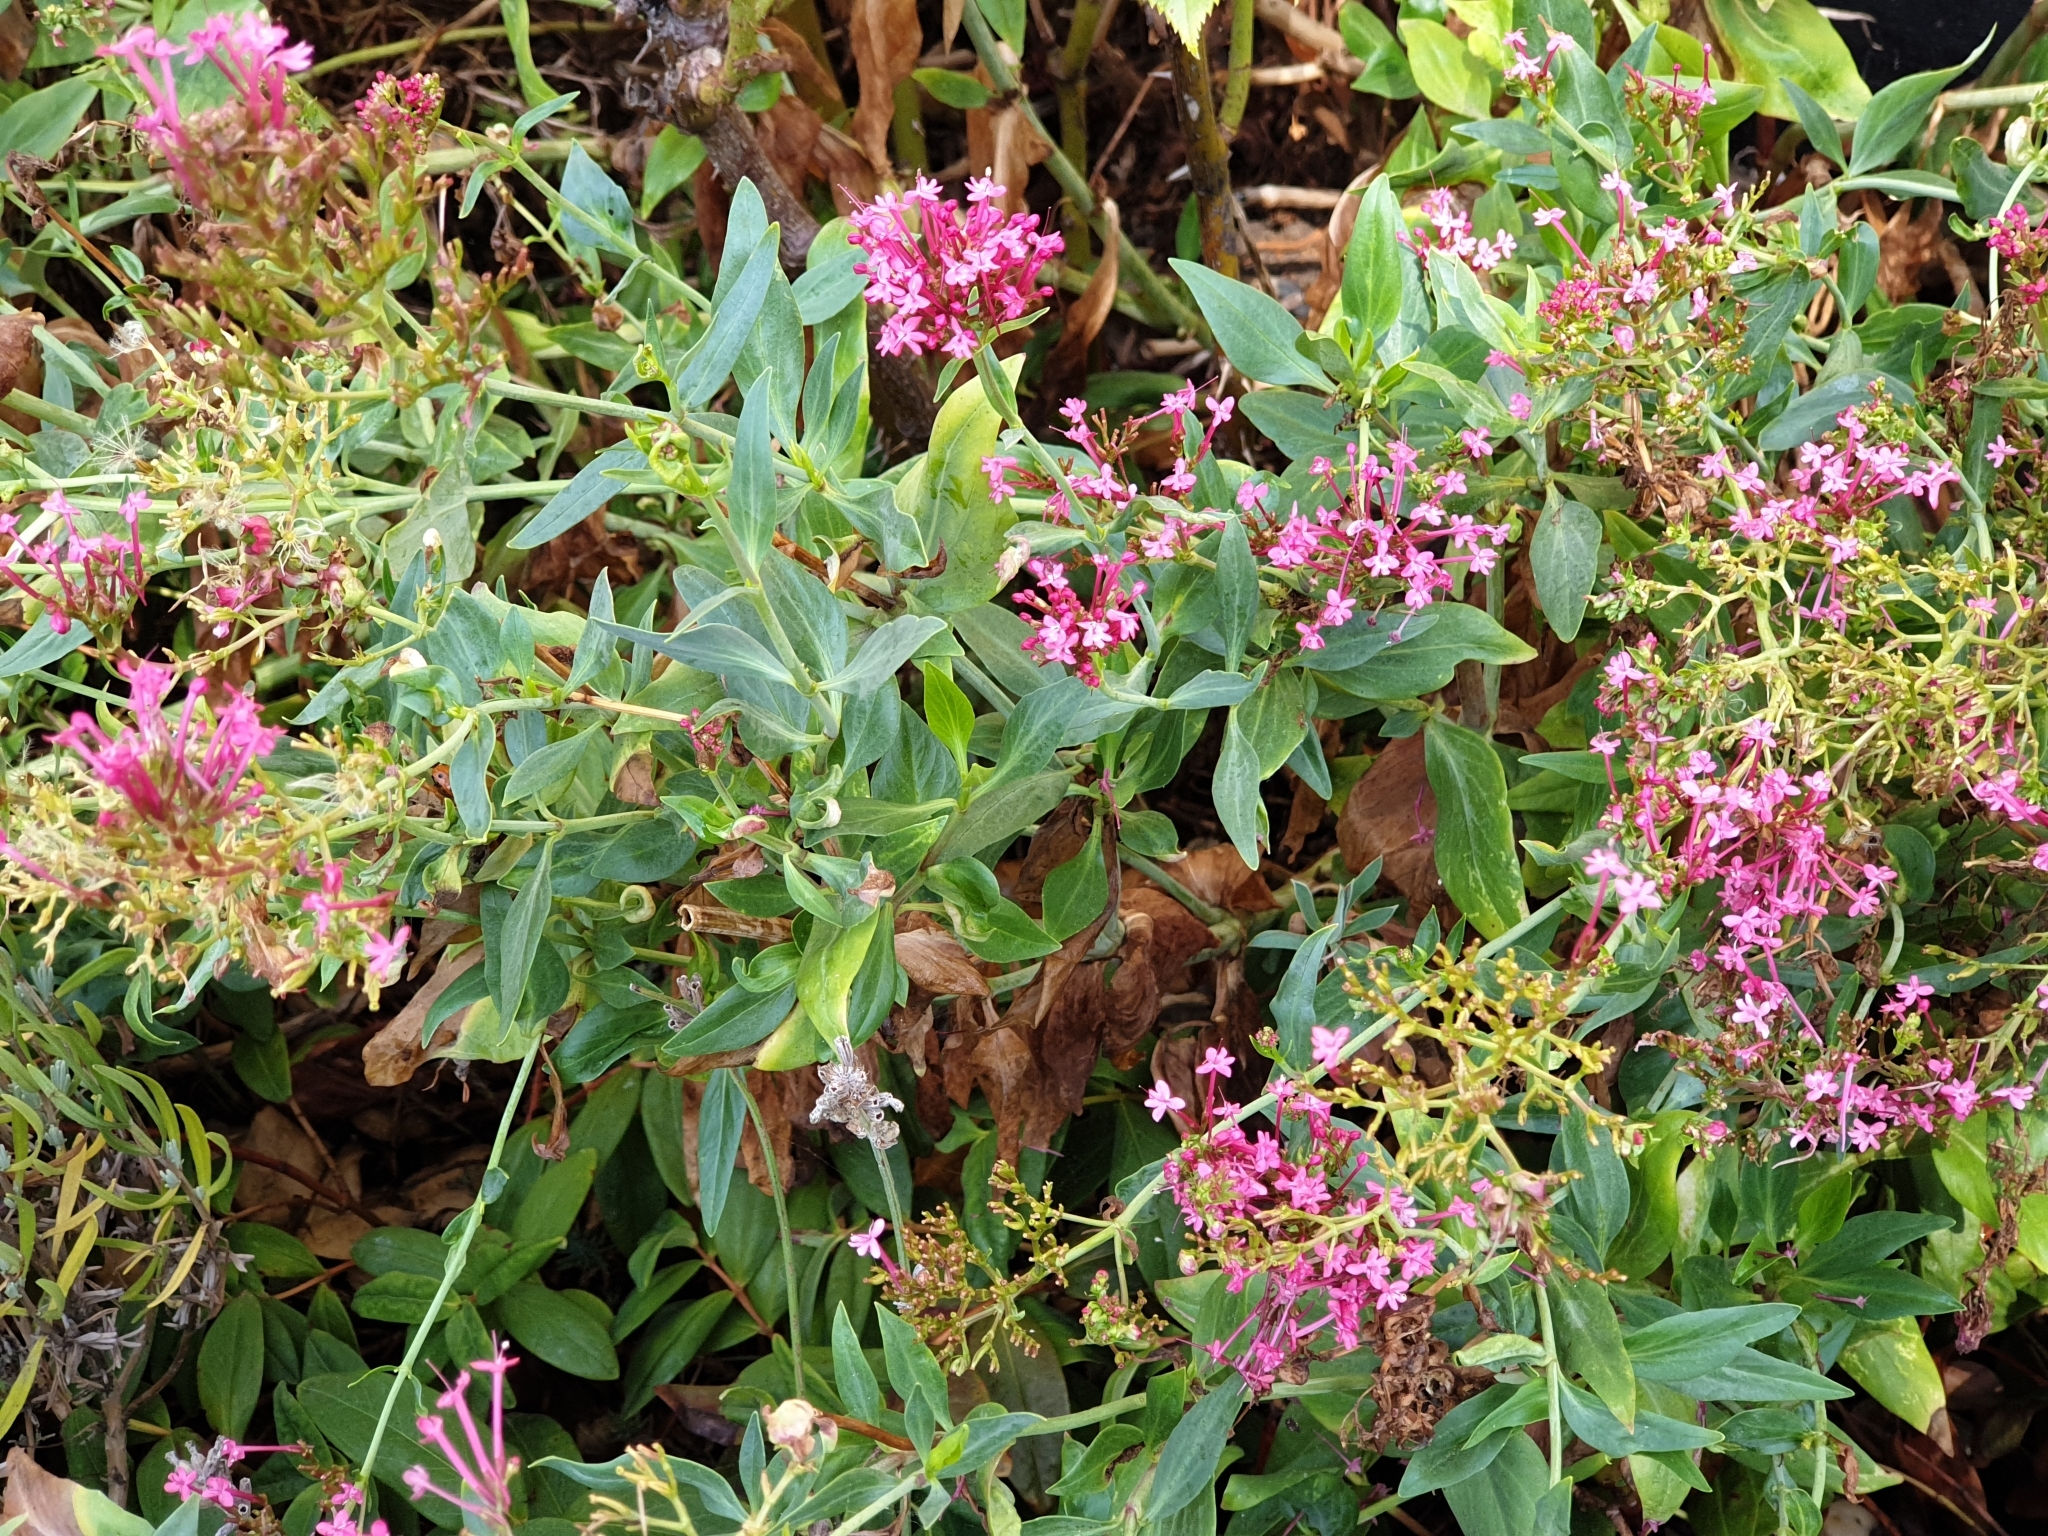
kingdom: Plantae
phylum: Tracheophyta
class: Magnoliopsida
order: Dipsacales
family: Caprifoliaceae
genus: Centranthus
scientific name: Centranthus ruber
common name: Red valerian
